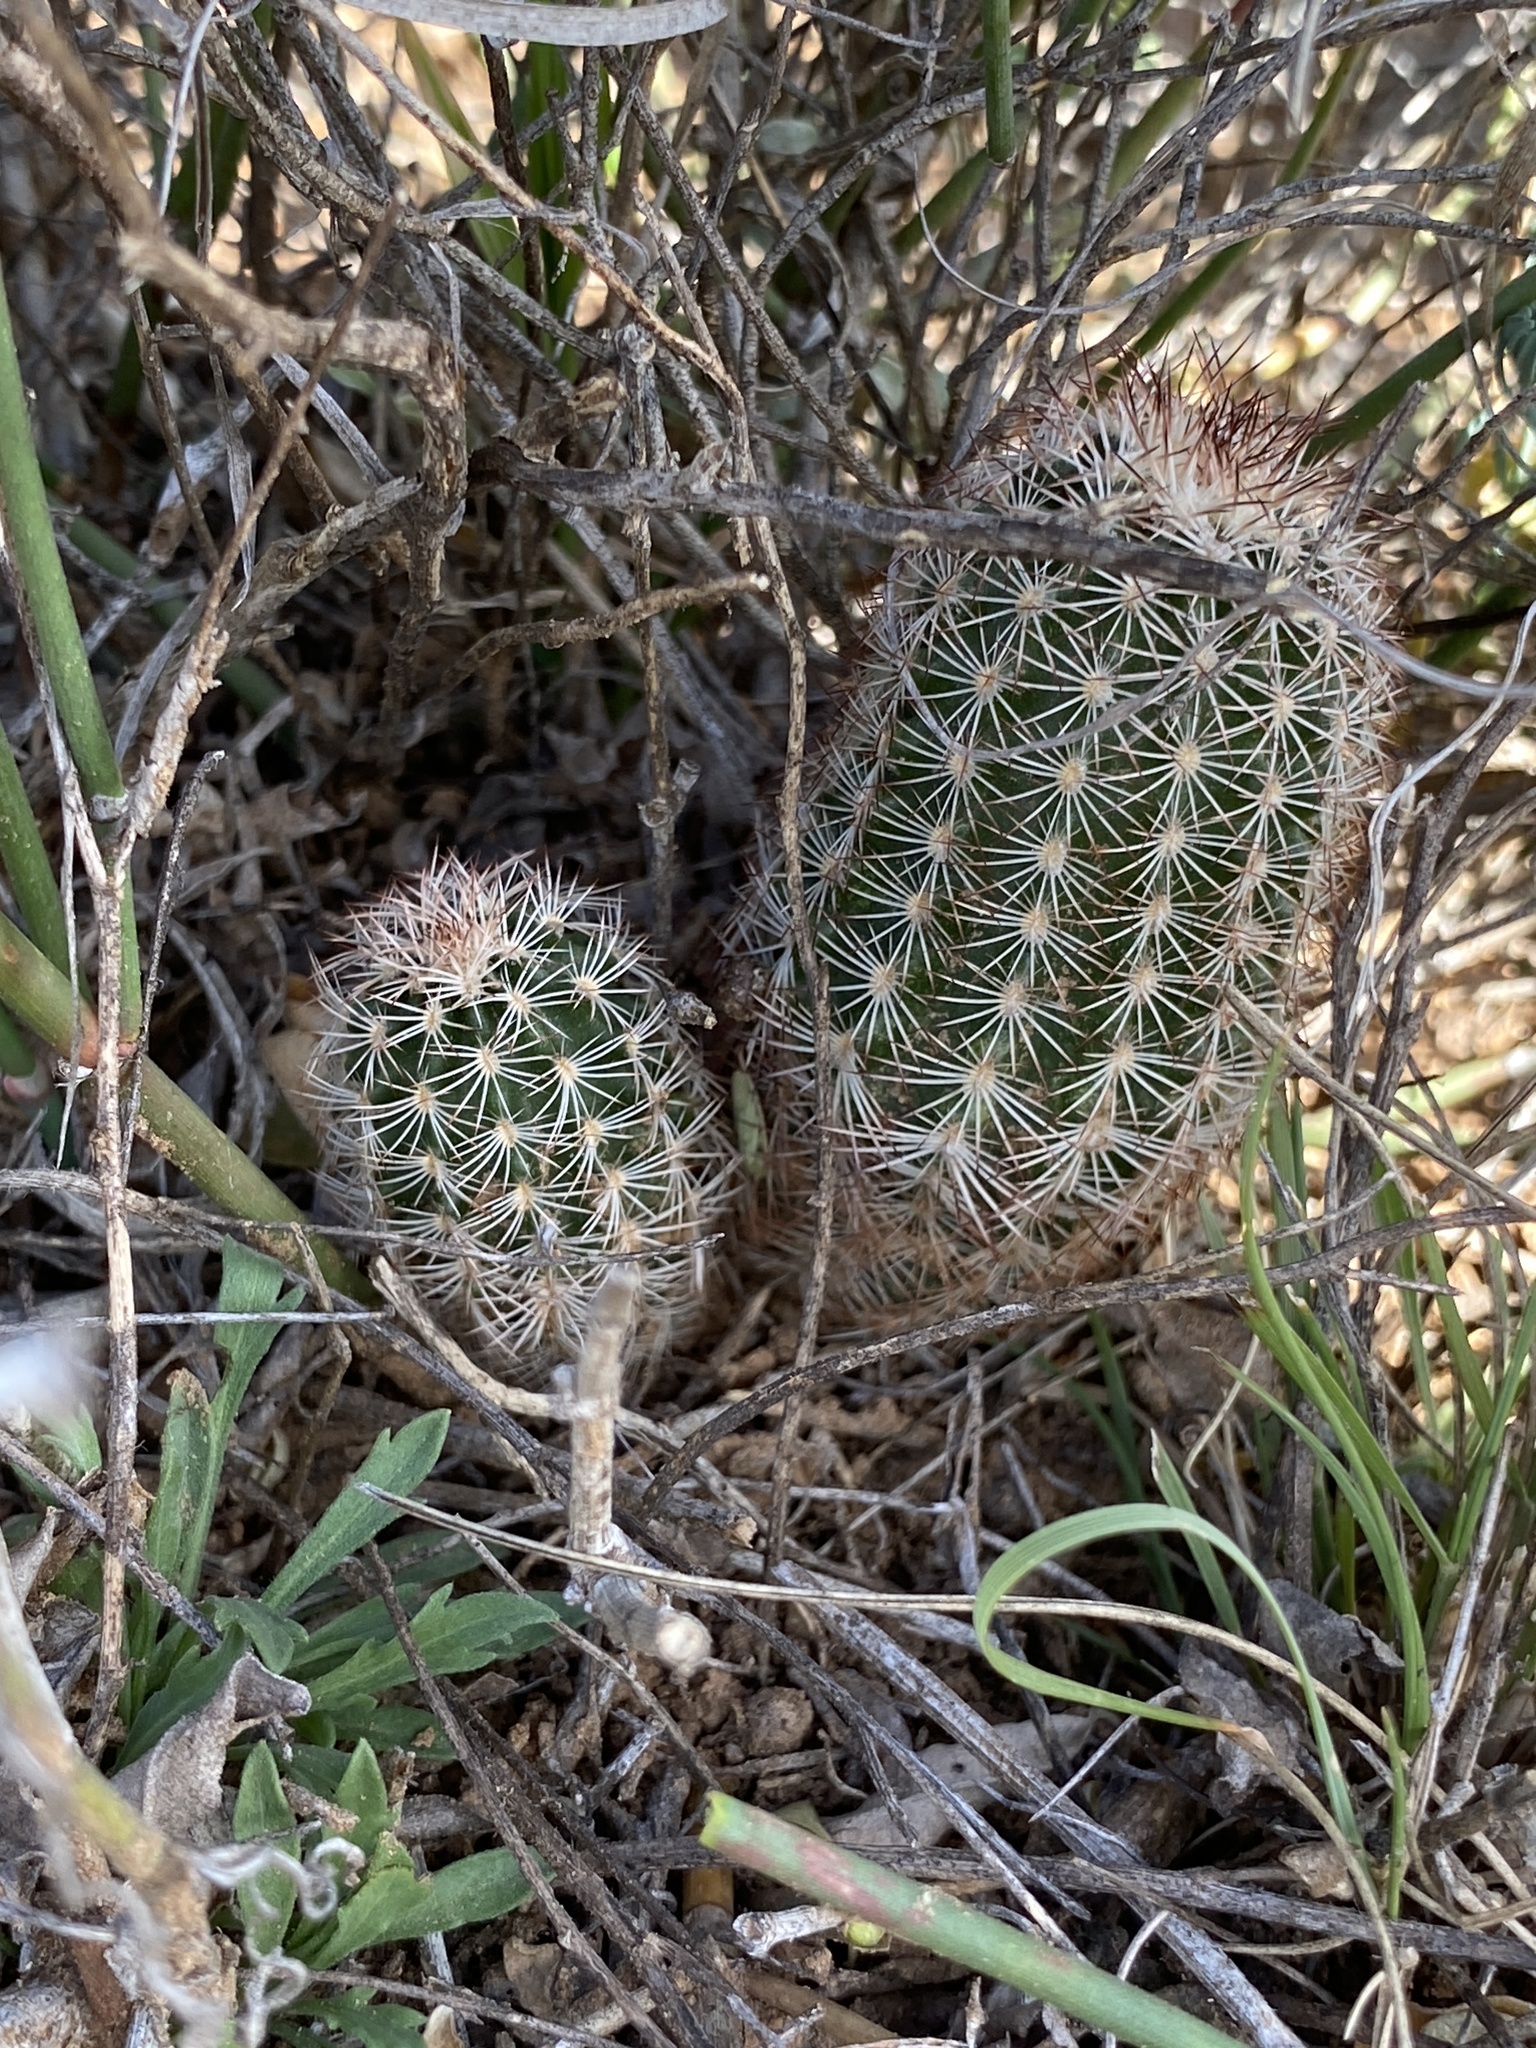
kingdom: Plantae
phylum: Tracheophyta
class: Magnoliopsida
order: Caryophyllales
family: Cactaceae
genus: Echinocereus
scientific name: Echinocereus reichenbachii
